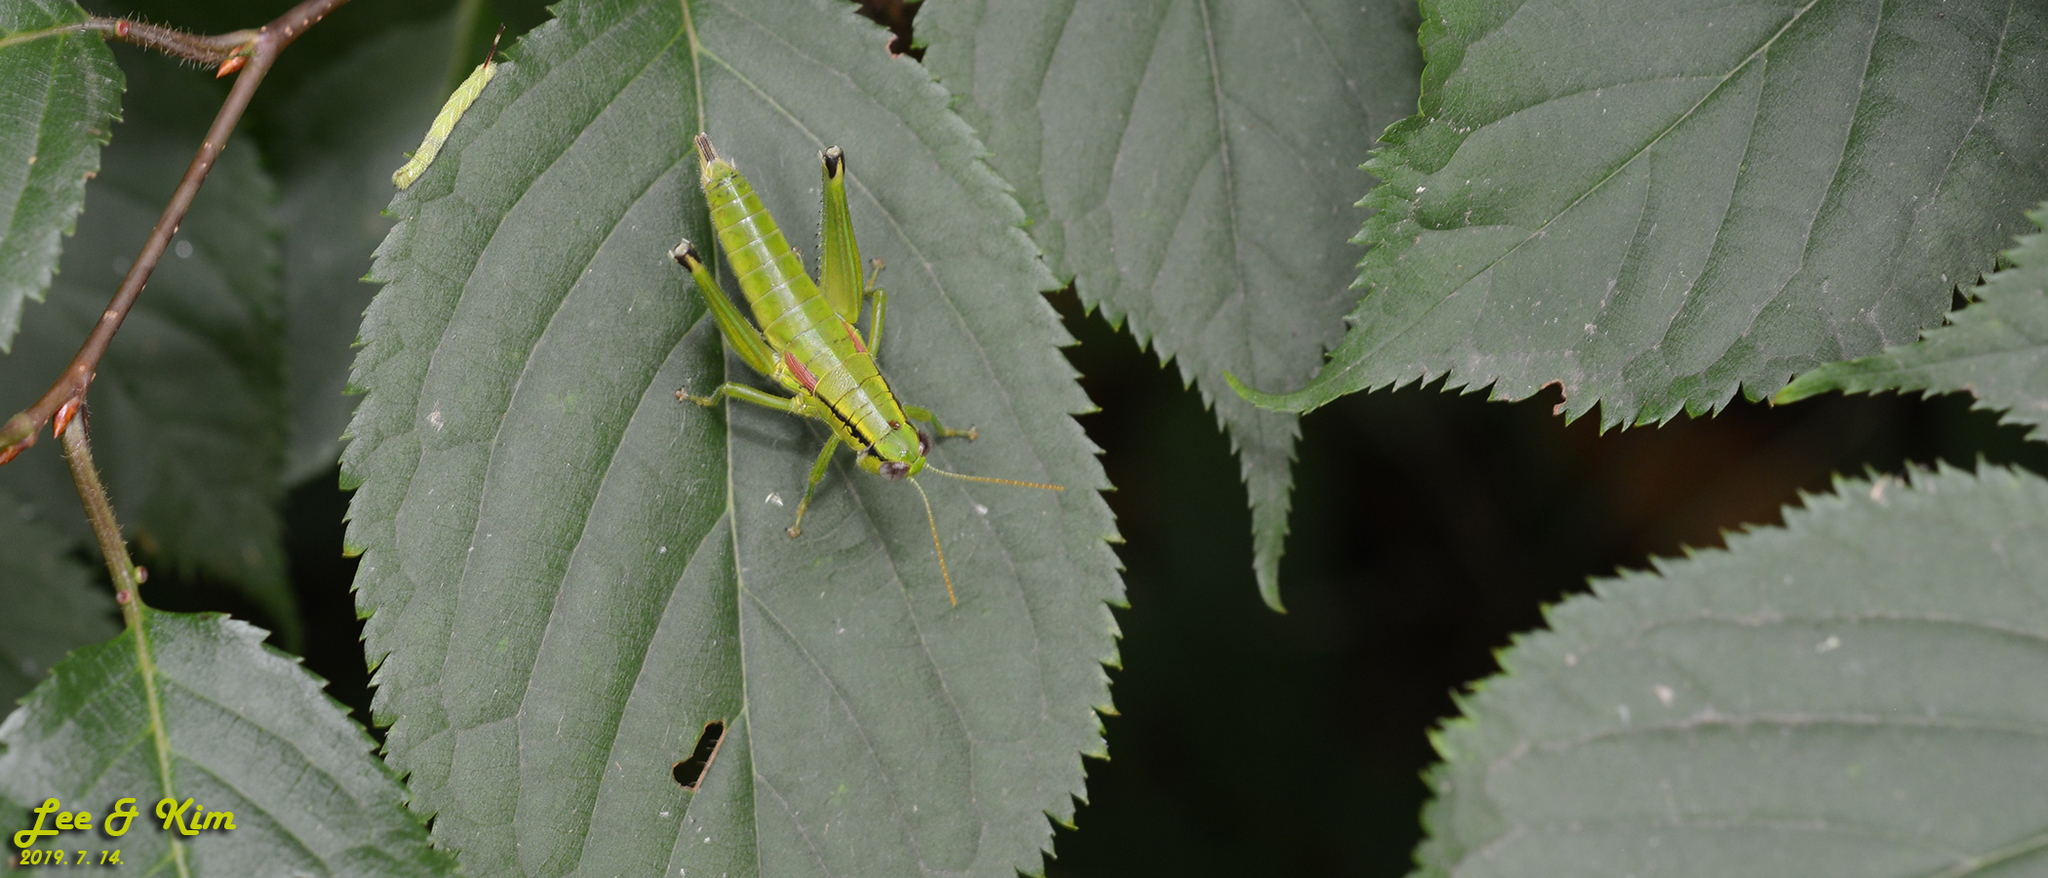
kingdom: Animalia
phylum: Arthropoda
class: Insecta
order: Orthoptera
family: Acrididae
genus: Anapodisma
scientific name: Anapodisma miramae
